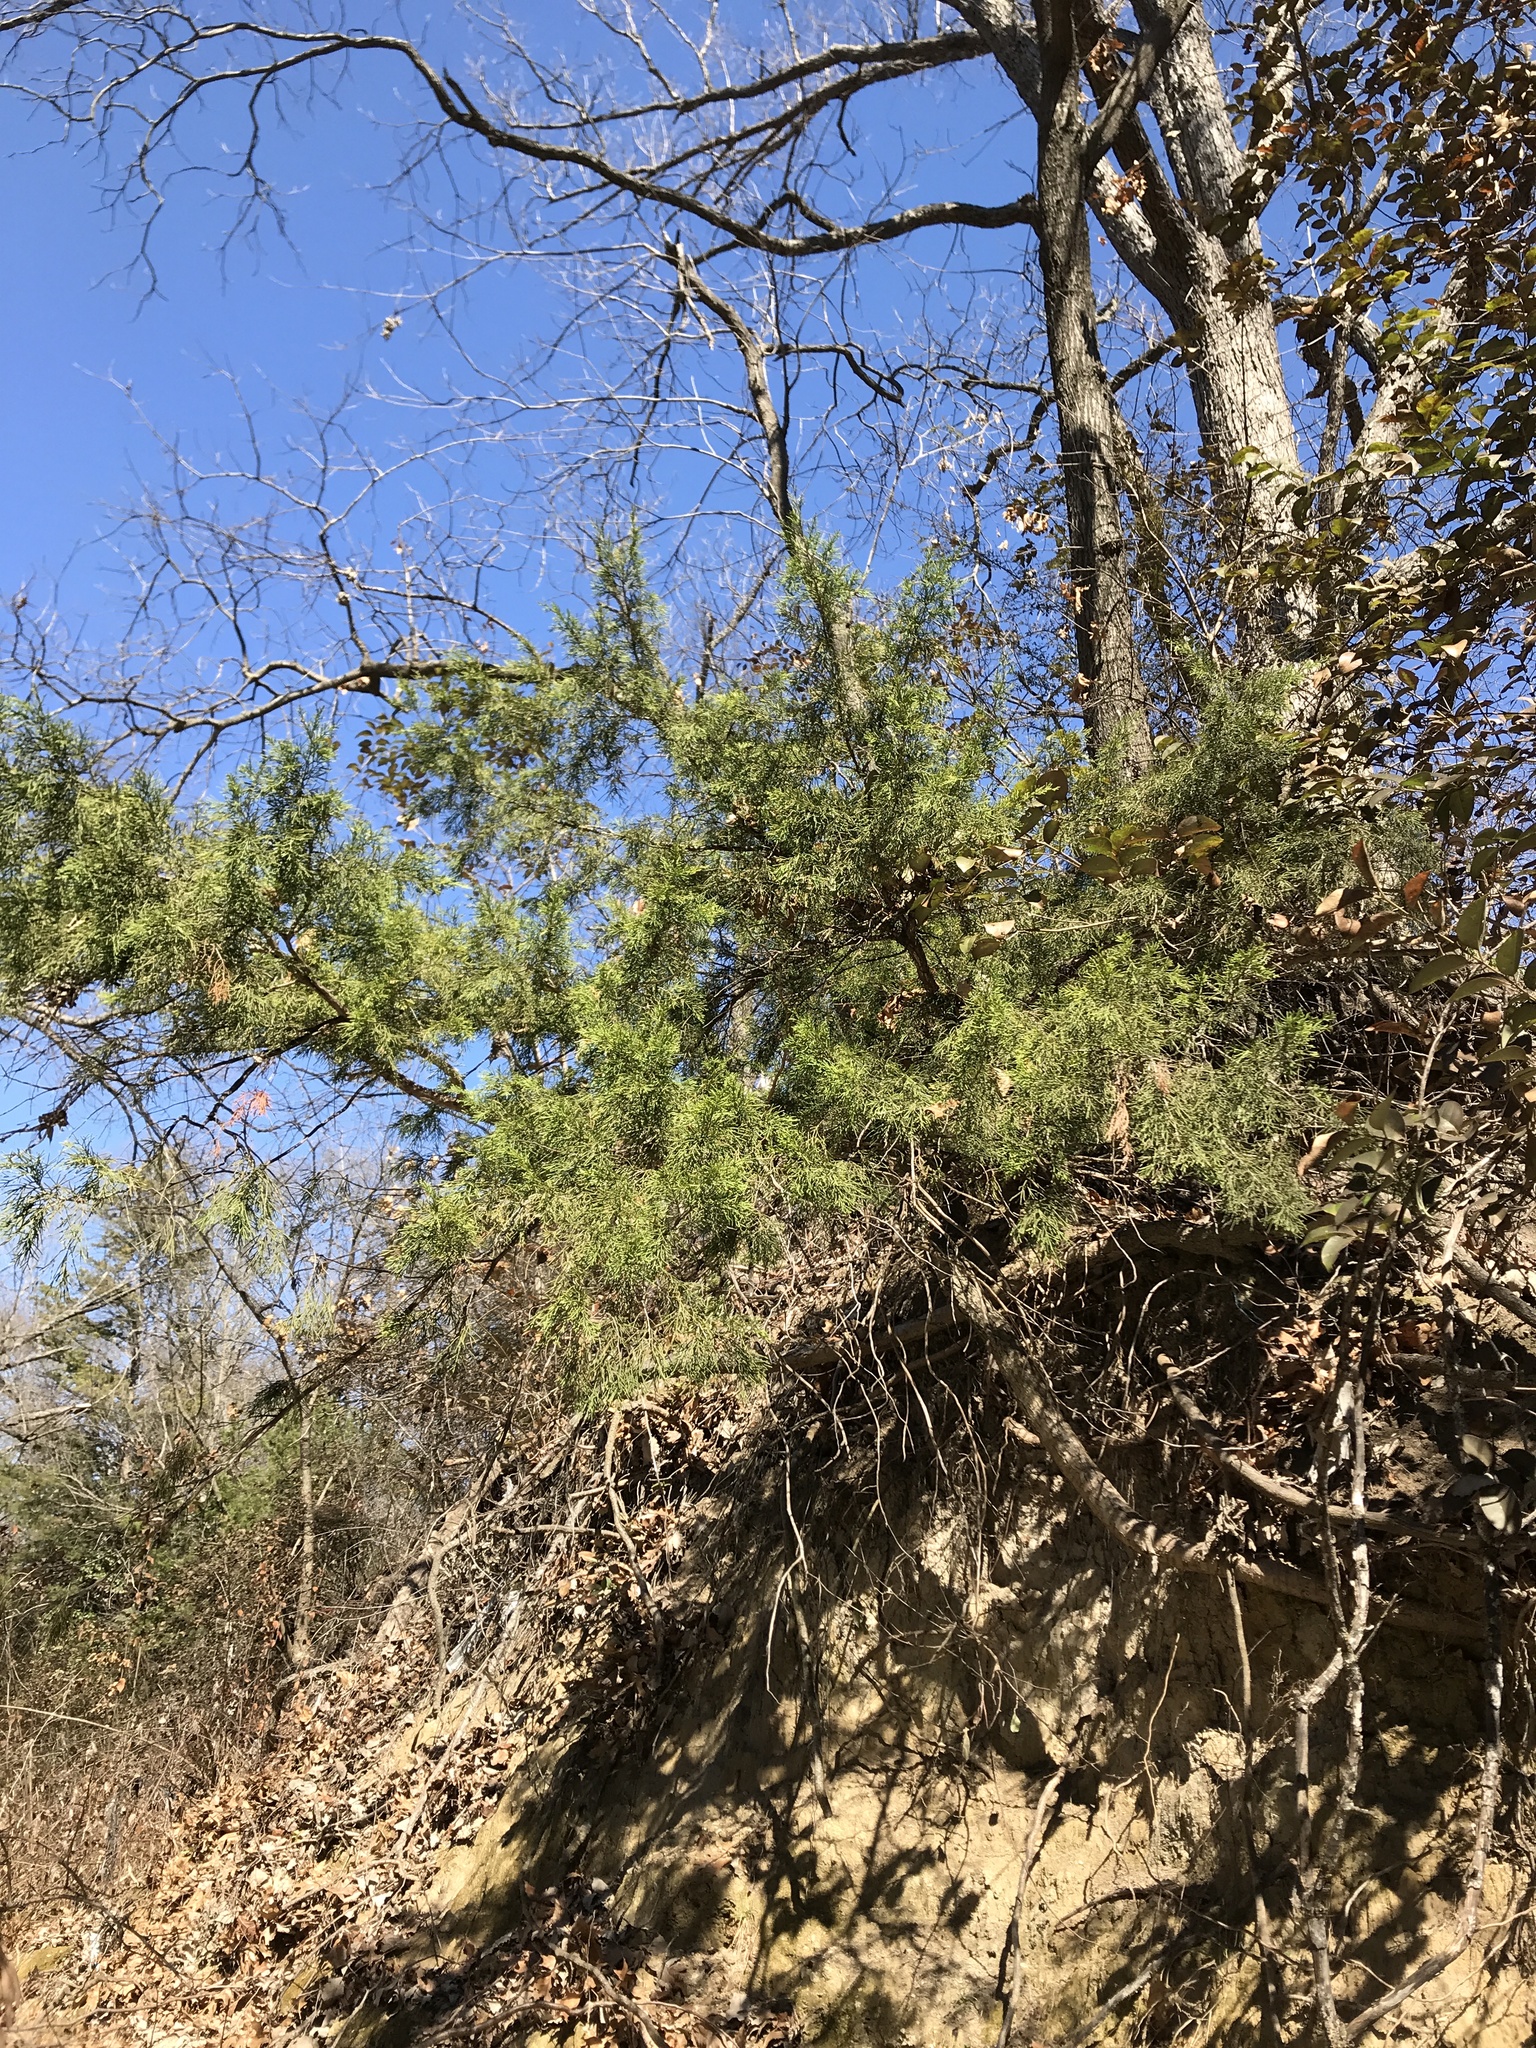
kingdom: Plantae
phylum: Tracheophyta
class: Pinopsida
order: Pinales
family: Cupressaceae
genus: Juniperus
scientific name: Juniperus virginiana
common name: Red juniper
